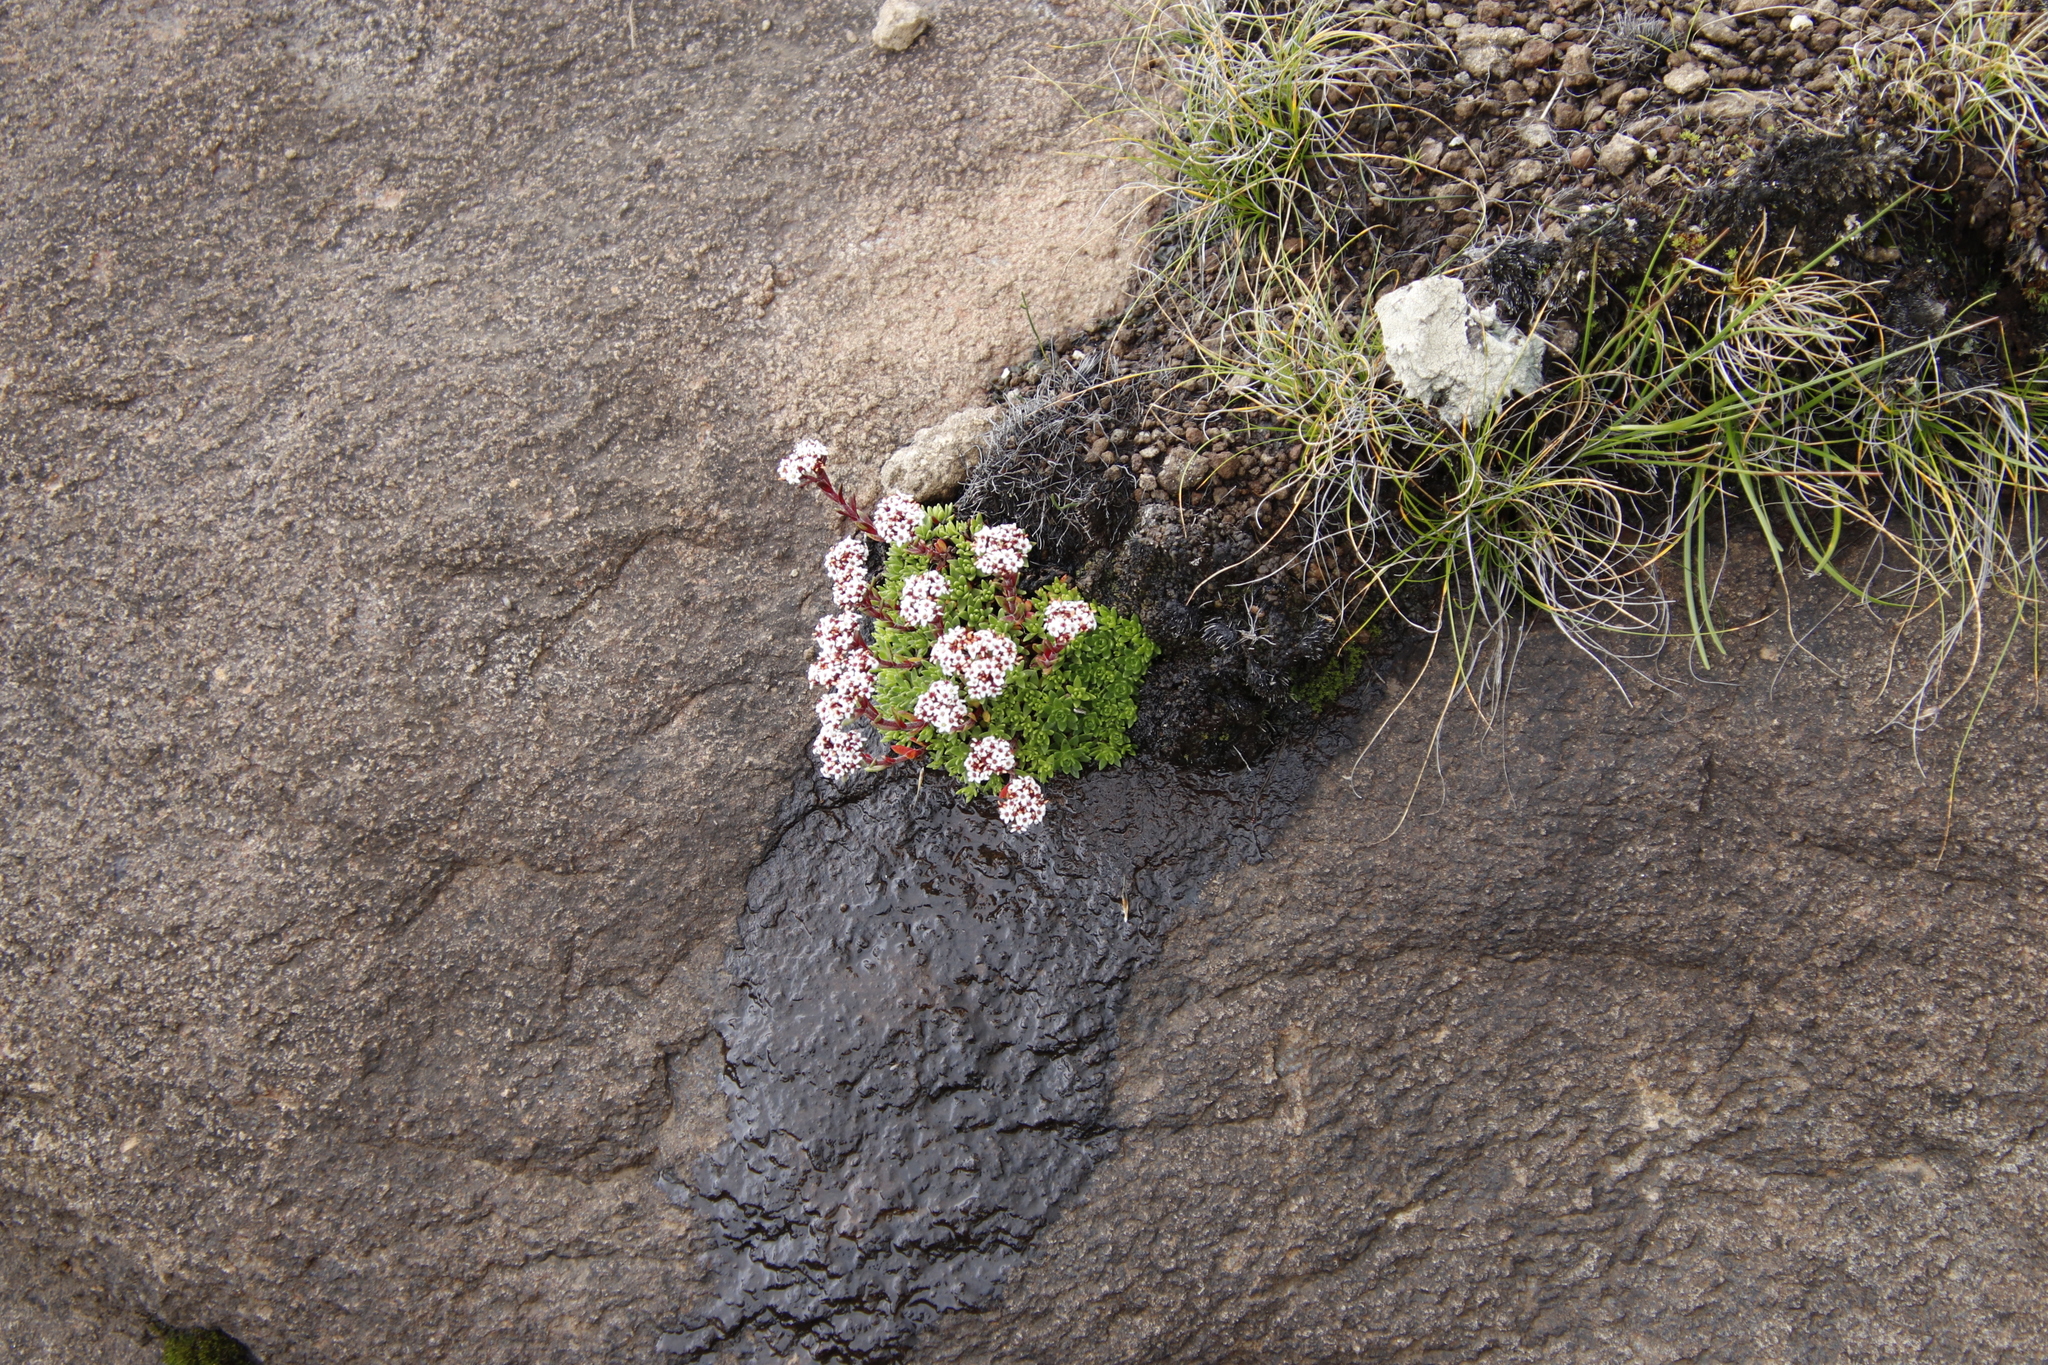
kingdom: Plantae
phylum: Tracheophyta
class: Magnoliopsida
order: Saxifragales
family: Crassulaceae
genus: Crassula
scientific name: Crassula setulosa
